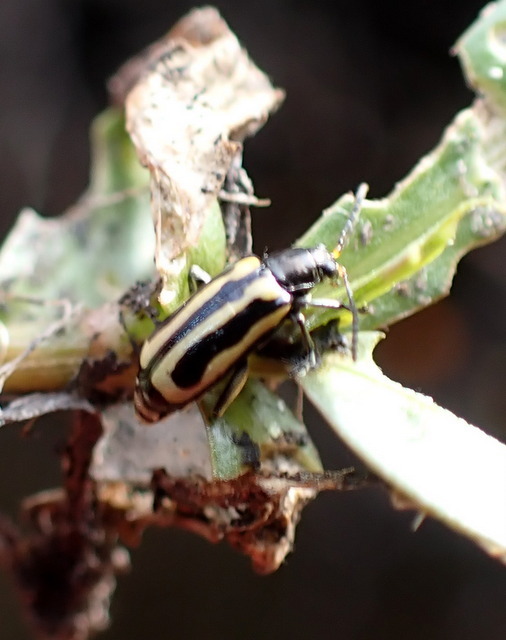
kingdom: Animalia
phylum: Arthropoda
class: Insecta
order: Coleoptera
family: Chrysomelidae
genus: Agasicles
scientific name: Agasicles hygrophila
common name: Alligatorweed flea beetle
